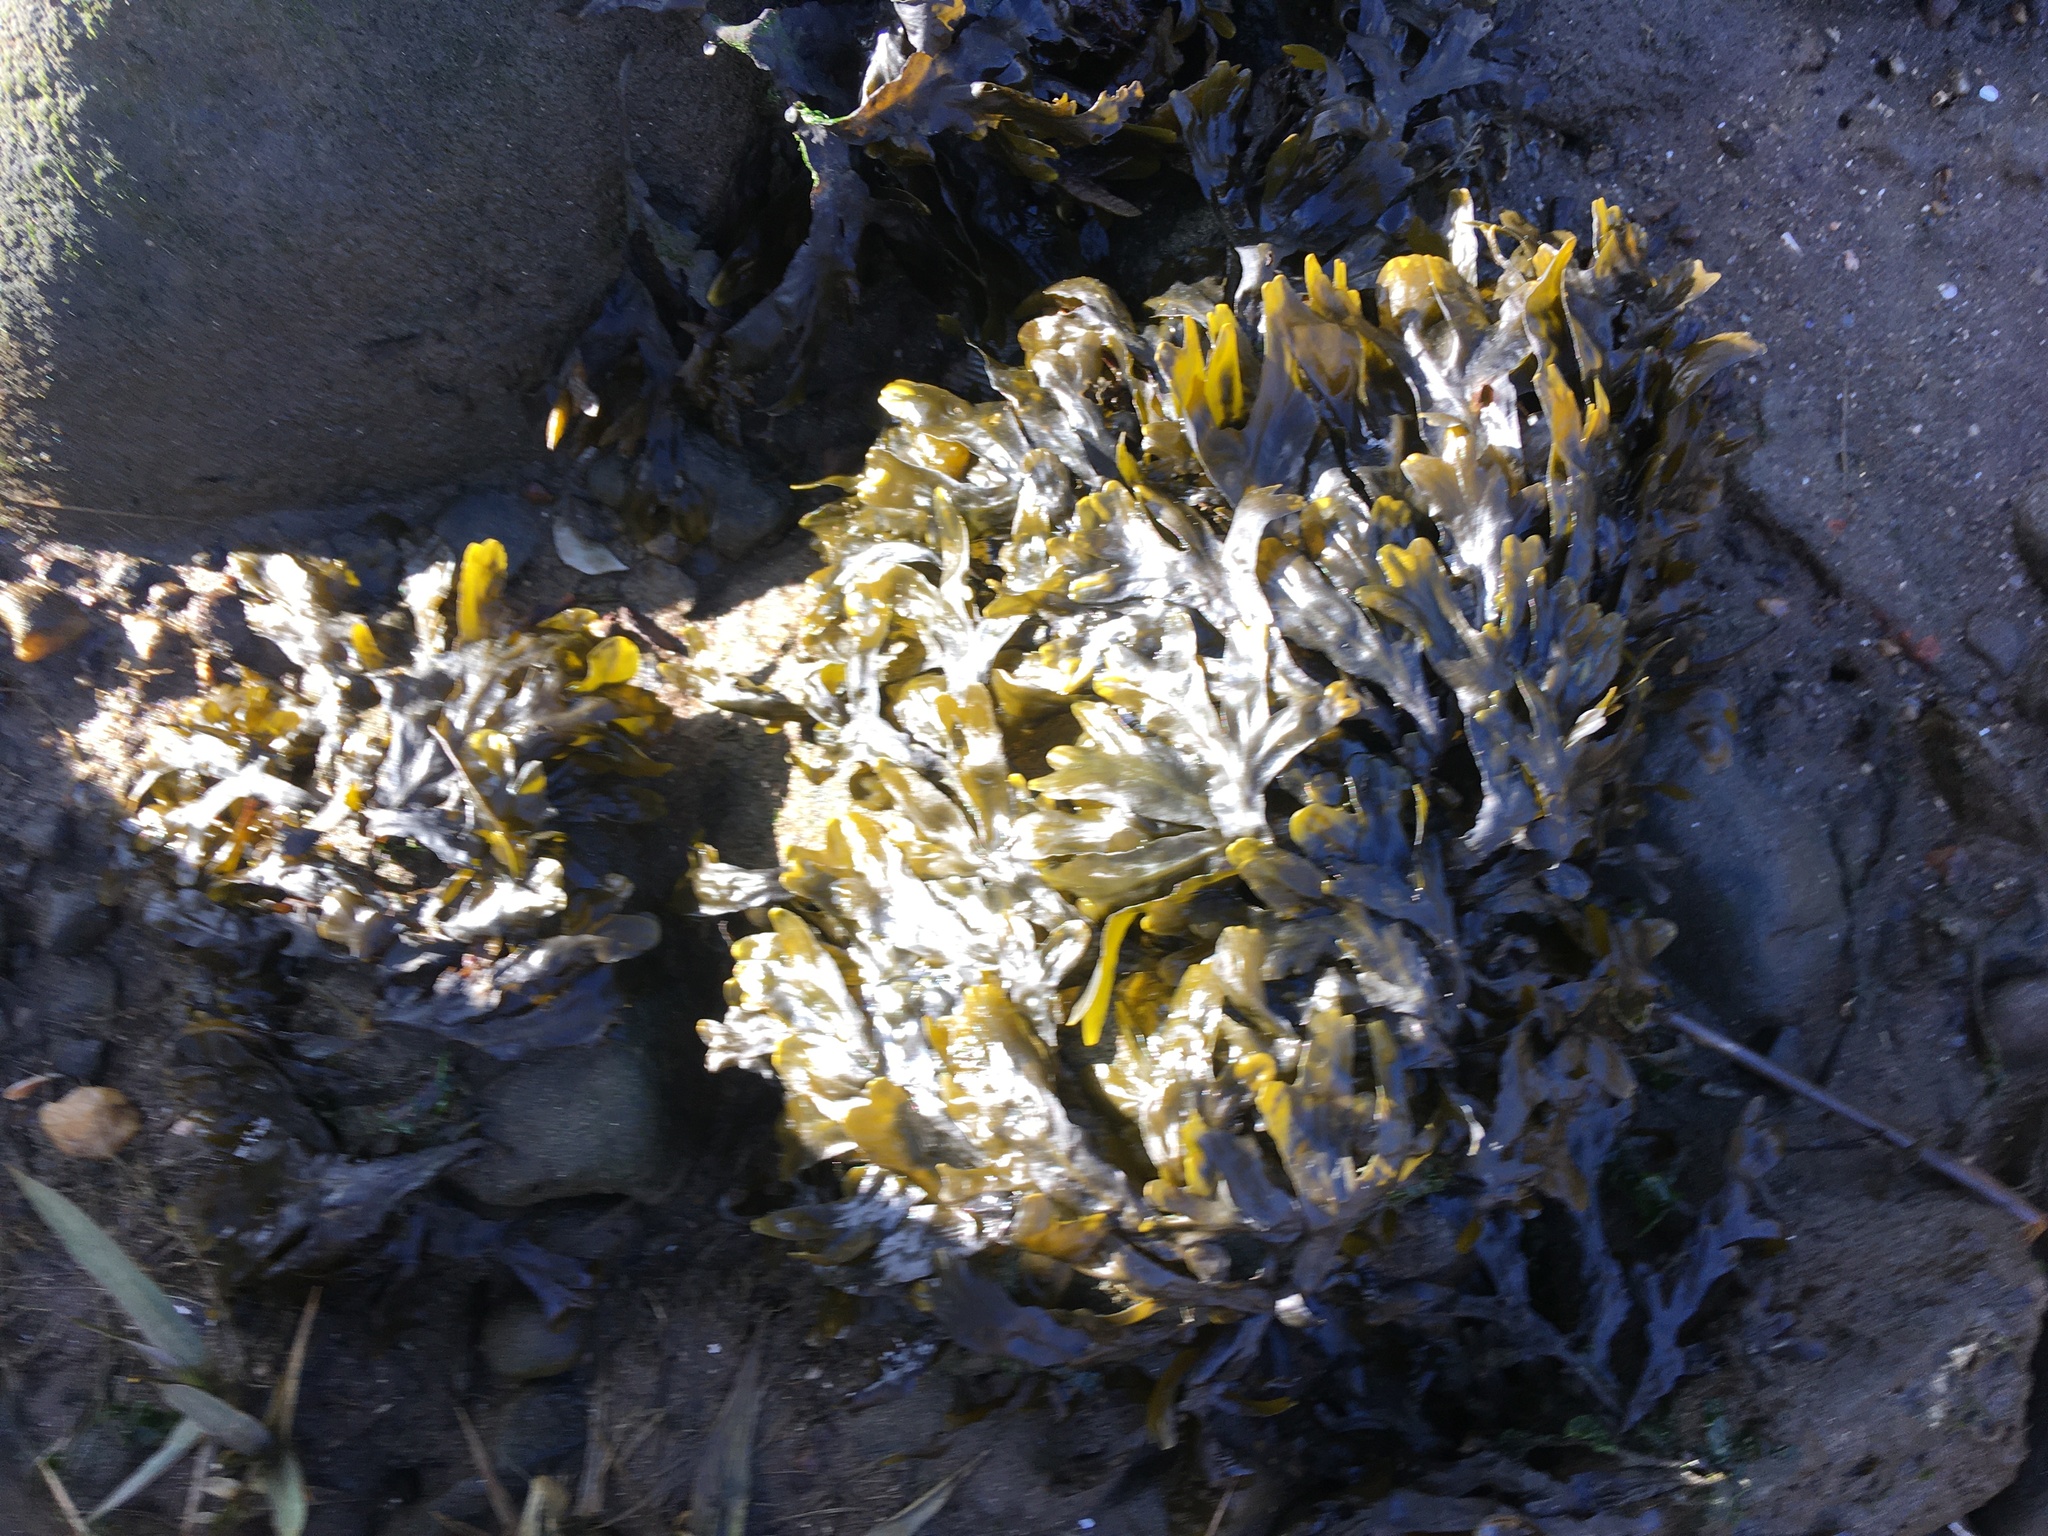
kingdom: Chromista
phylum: Ochrophyta
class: Phaeophyceae
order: Fucales
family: Fucaceae
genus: Fucus
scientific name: Fucus vesiculosus
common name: Bladder wrack
